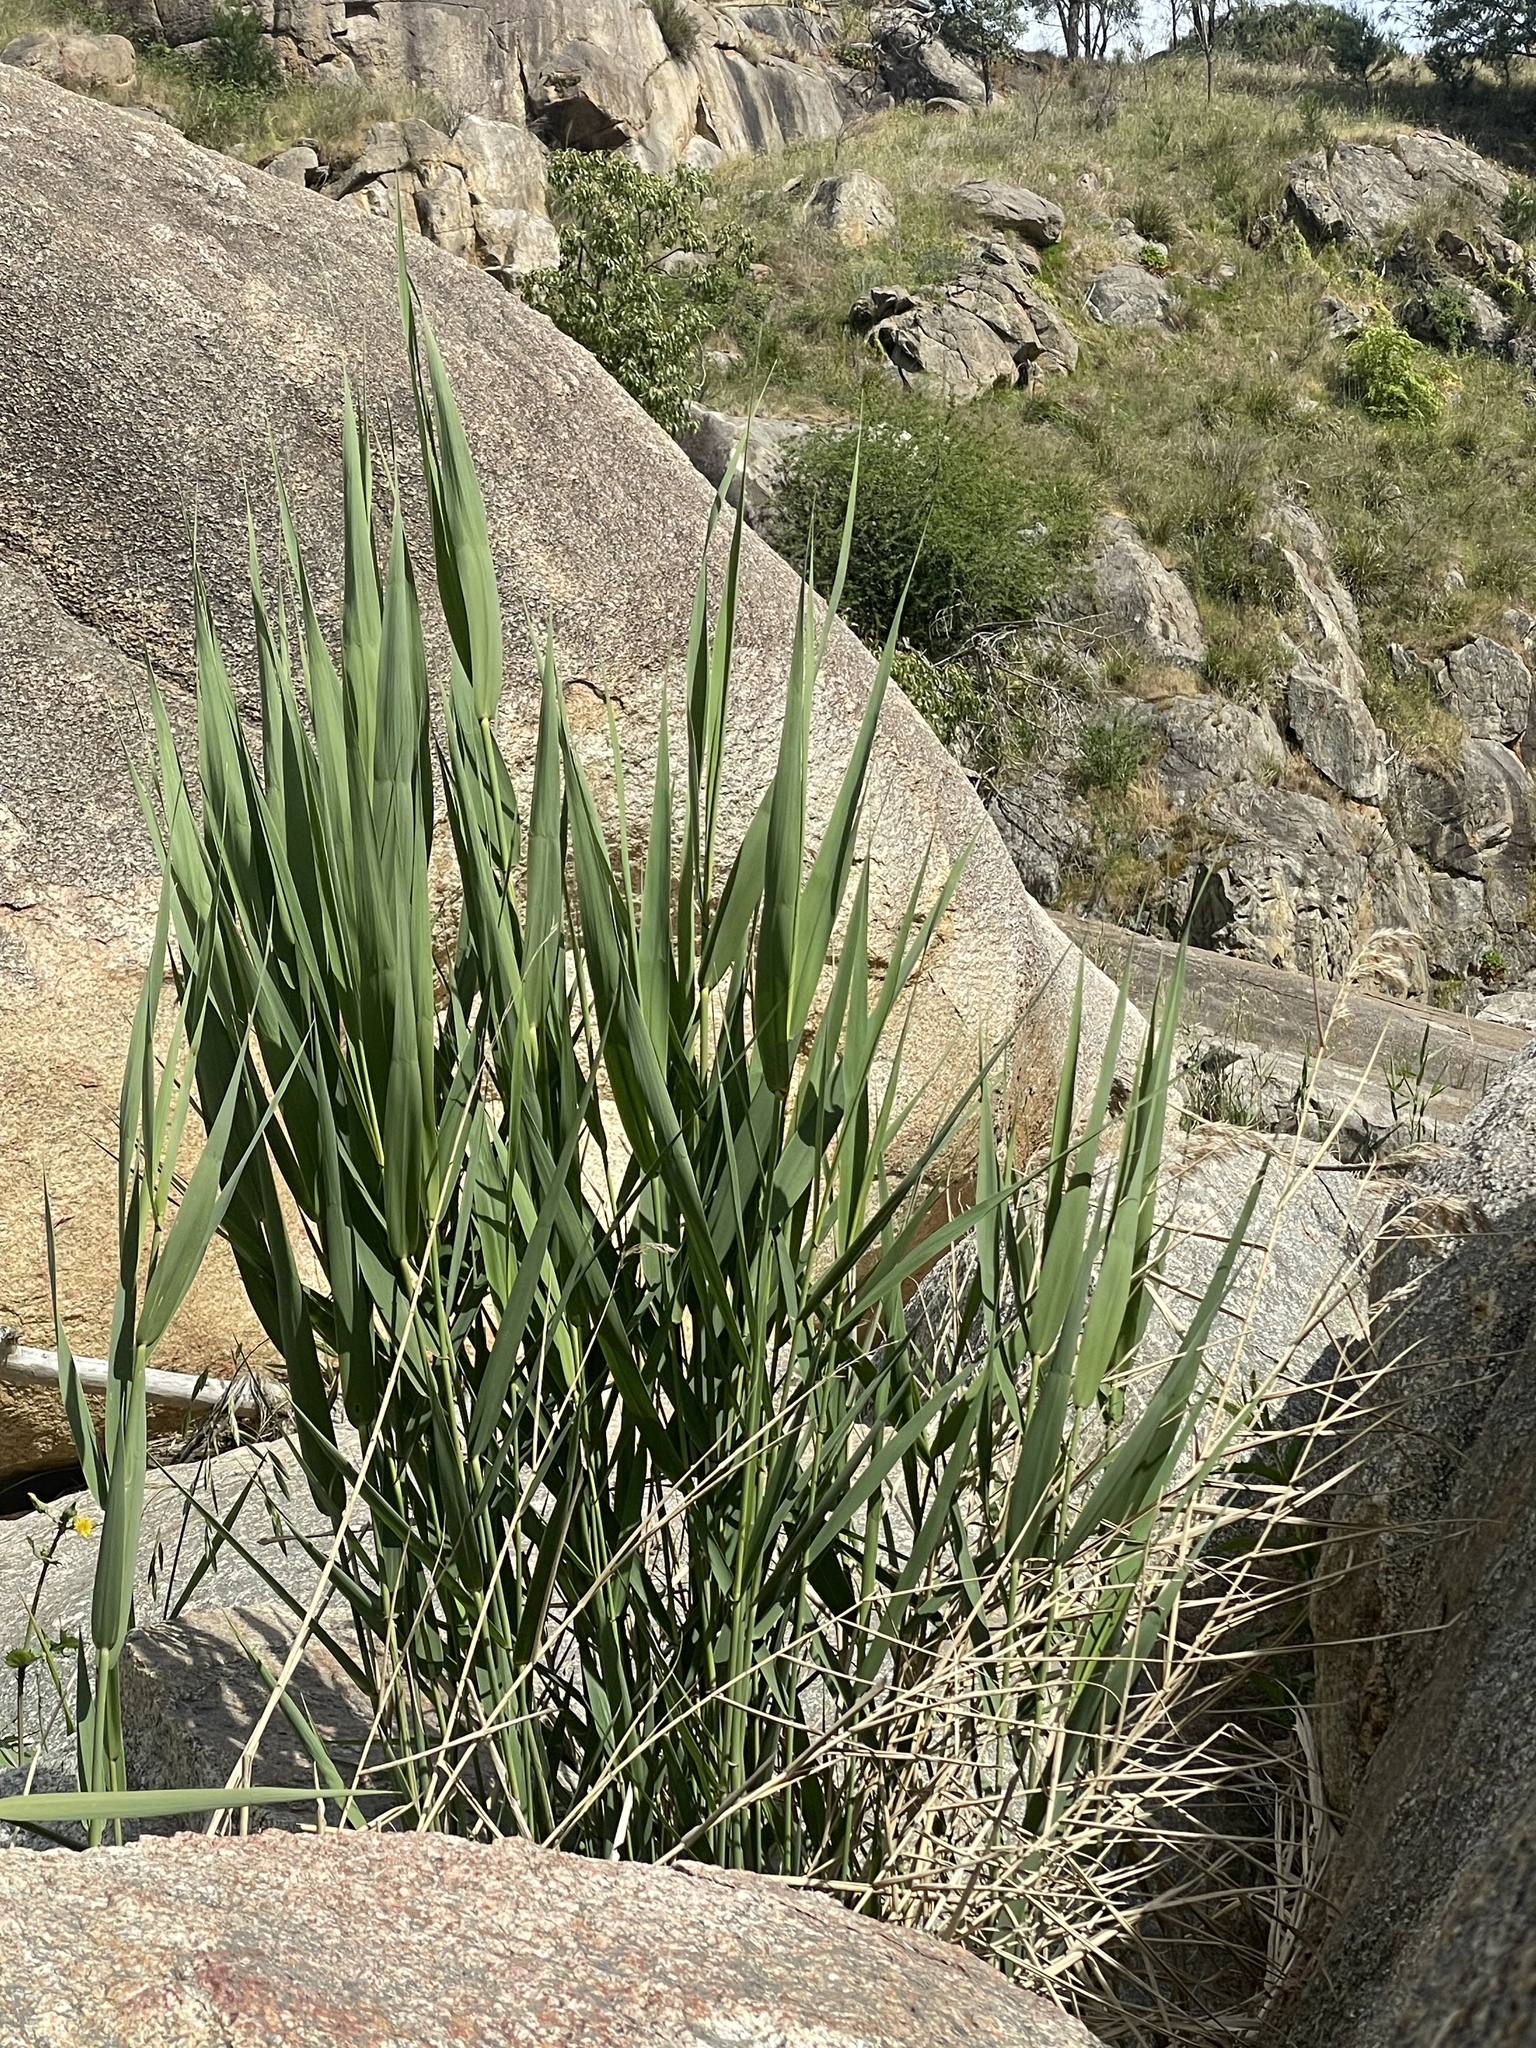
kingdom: Plantae
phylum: Tracheophyta
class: Liliopsida
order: Poales
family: Poaceae
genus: Phragmites
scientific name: Phragmites australis
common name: Common reed
